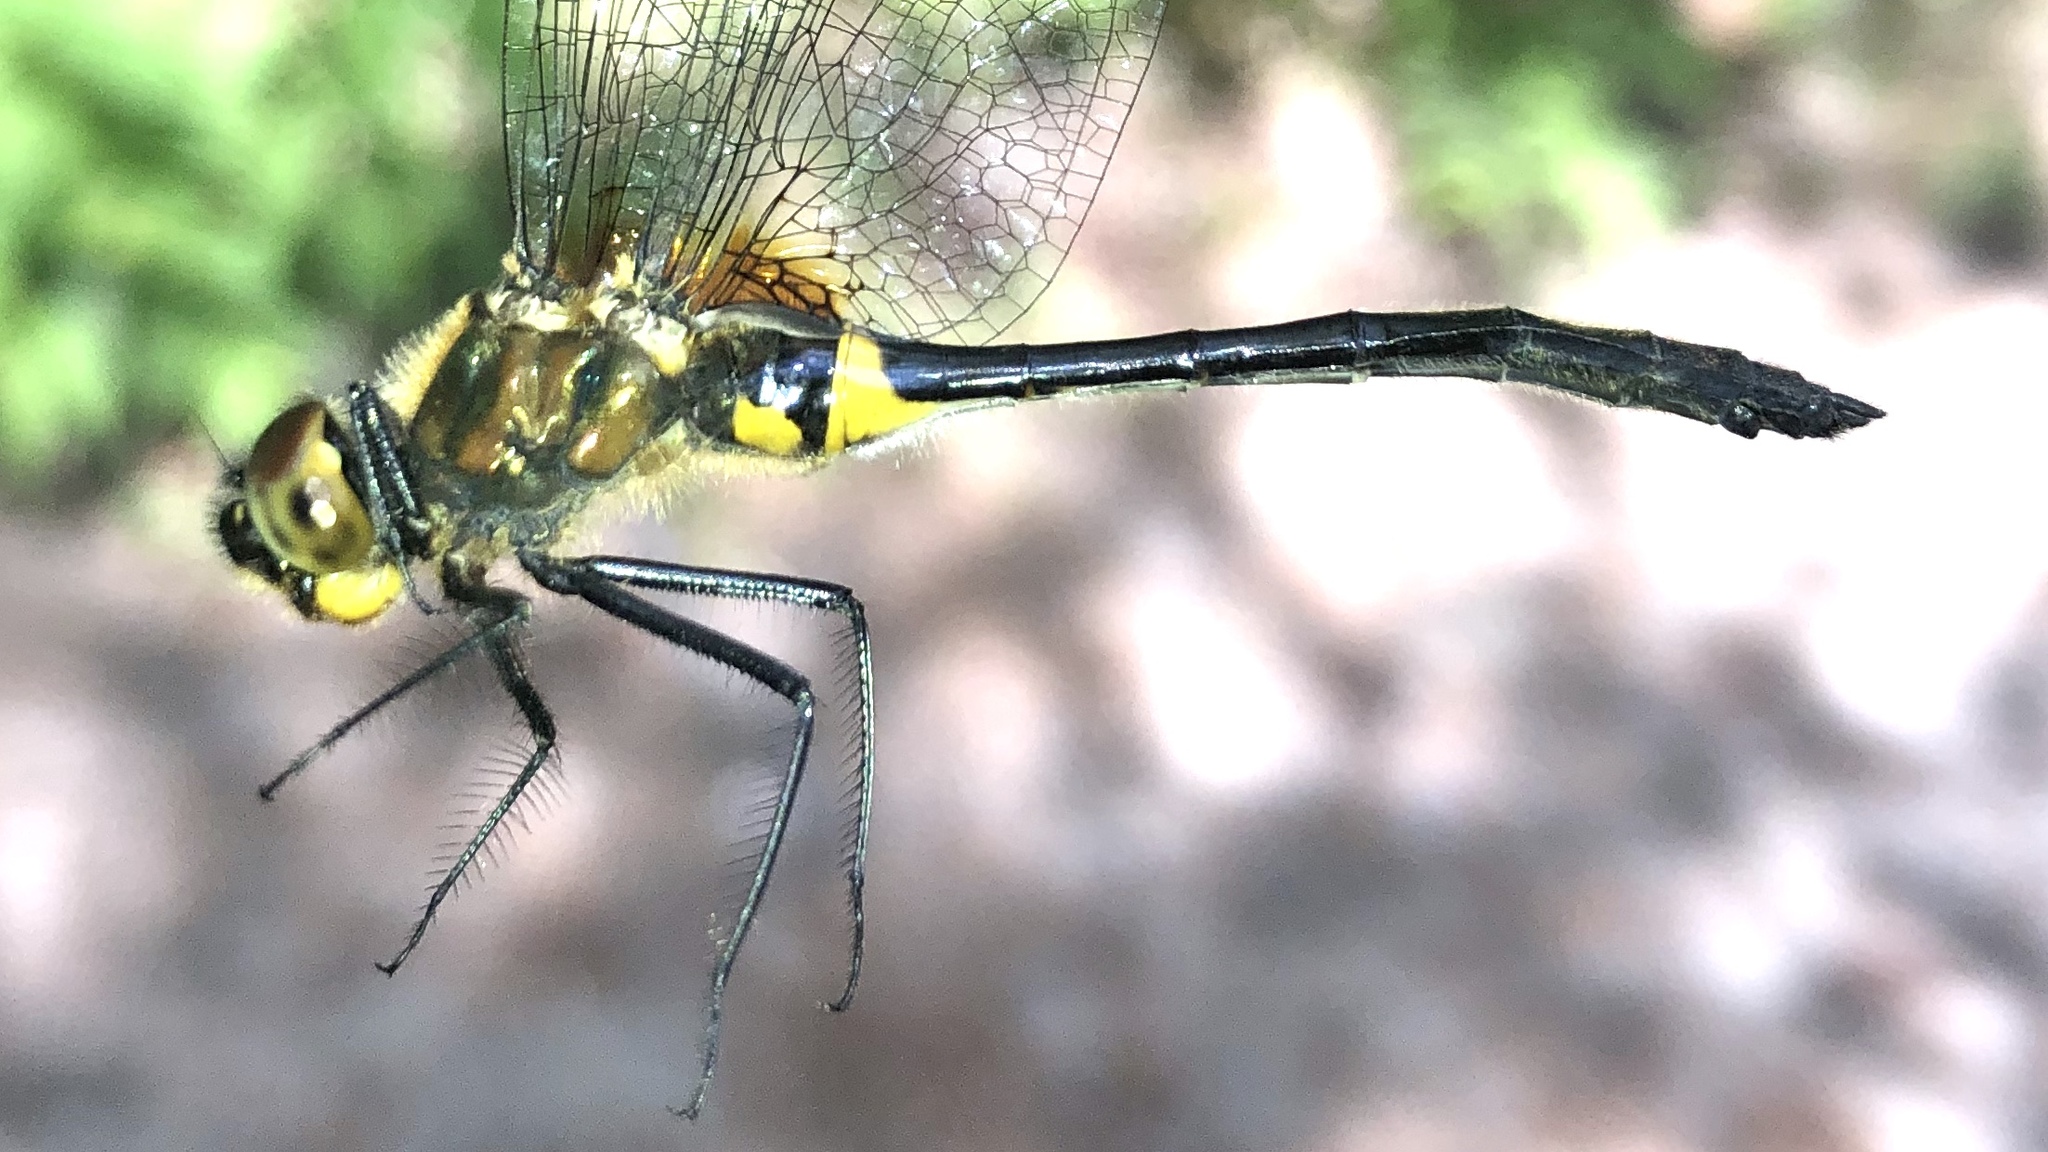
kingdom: Animalia
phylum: Arthropoda
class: Insecta
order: Odonata
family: Corduliidae
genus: Dorocordulia
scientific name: Dorocordulia libera
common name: Racket-tailed emerald
